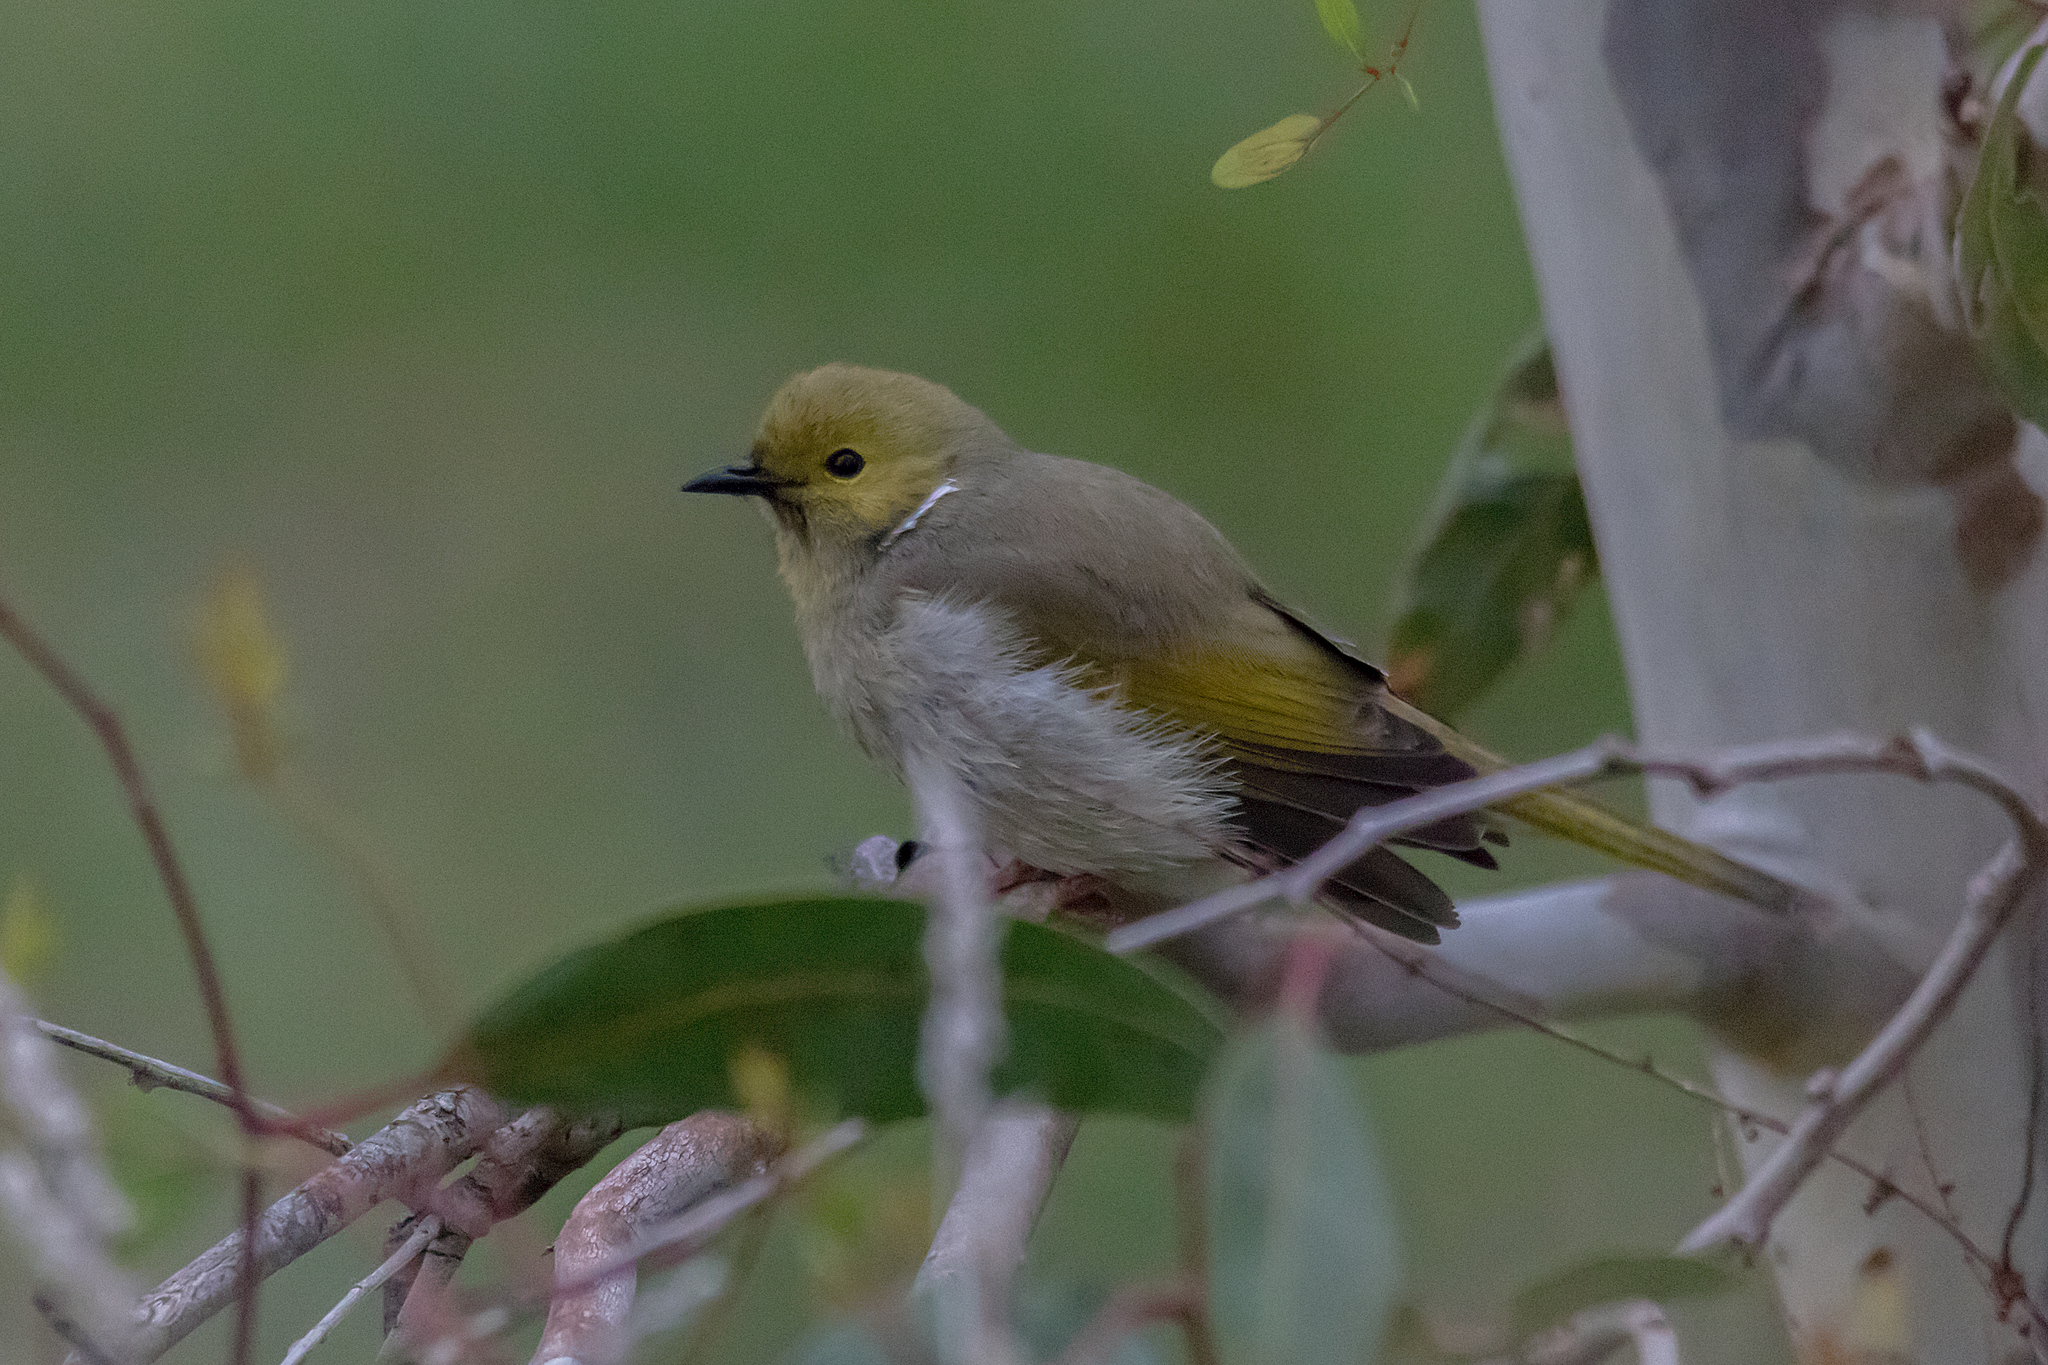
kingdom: Animalia
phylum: Chordata
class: Aves
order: Passeriformes
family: Meliphagidae
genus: Ptilotula
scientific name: Ptilotula penicillata
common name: White-plumed honeyeater
